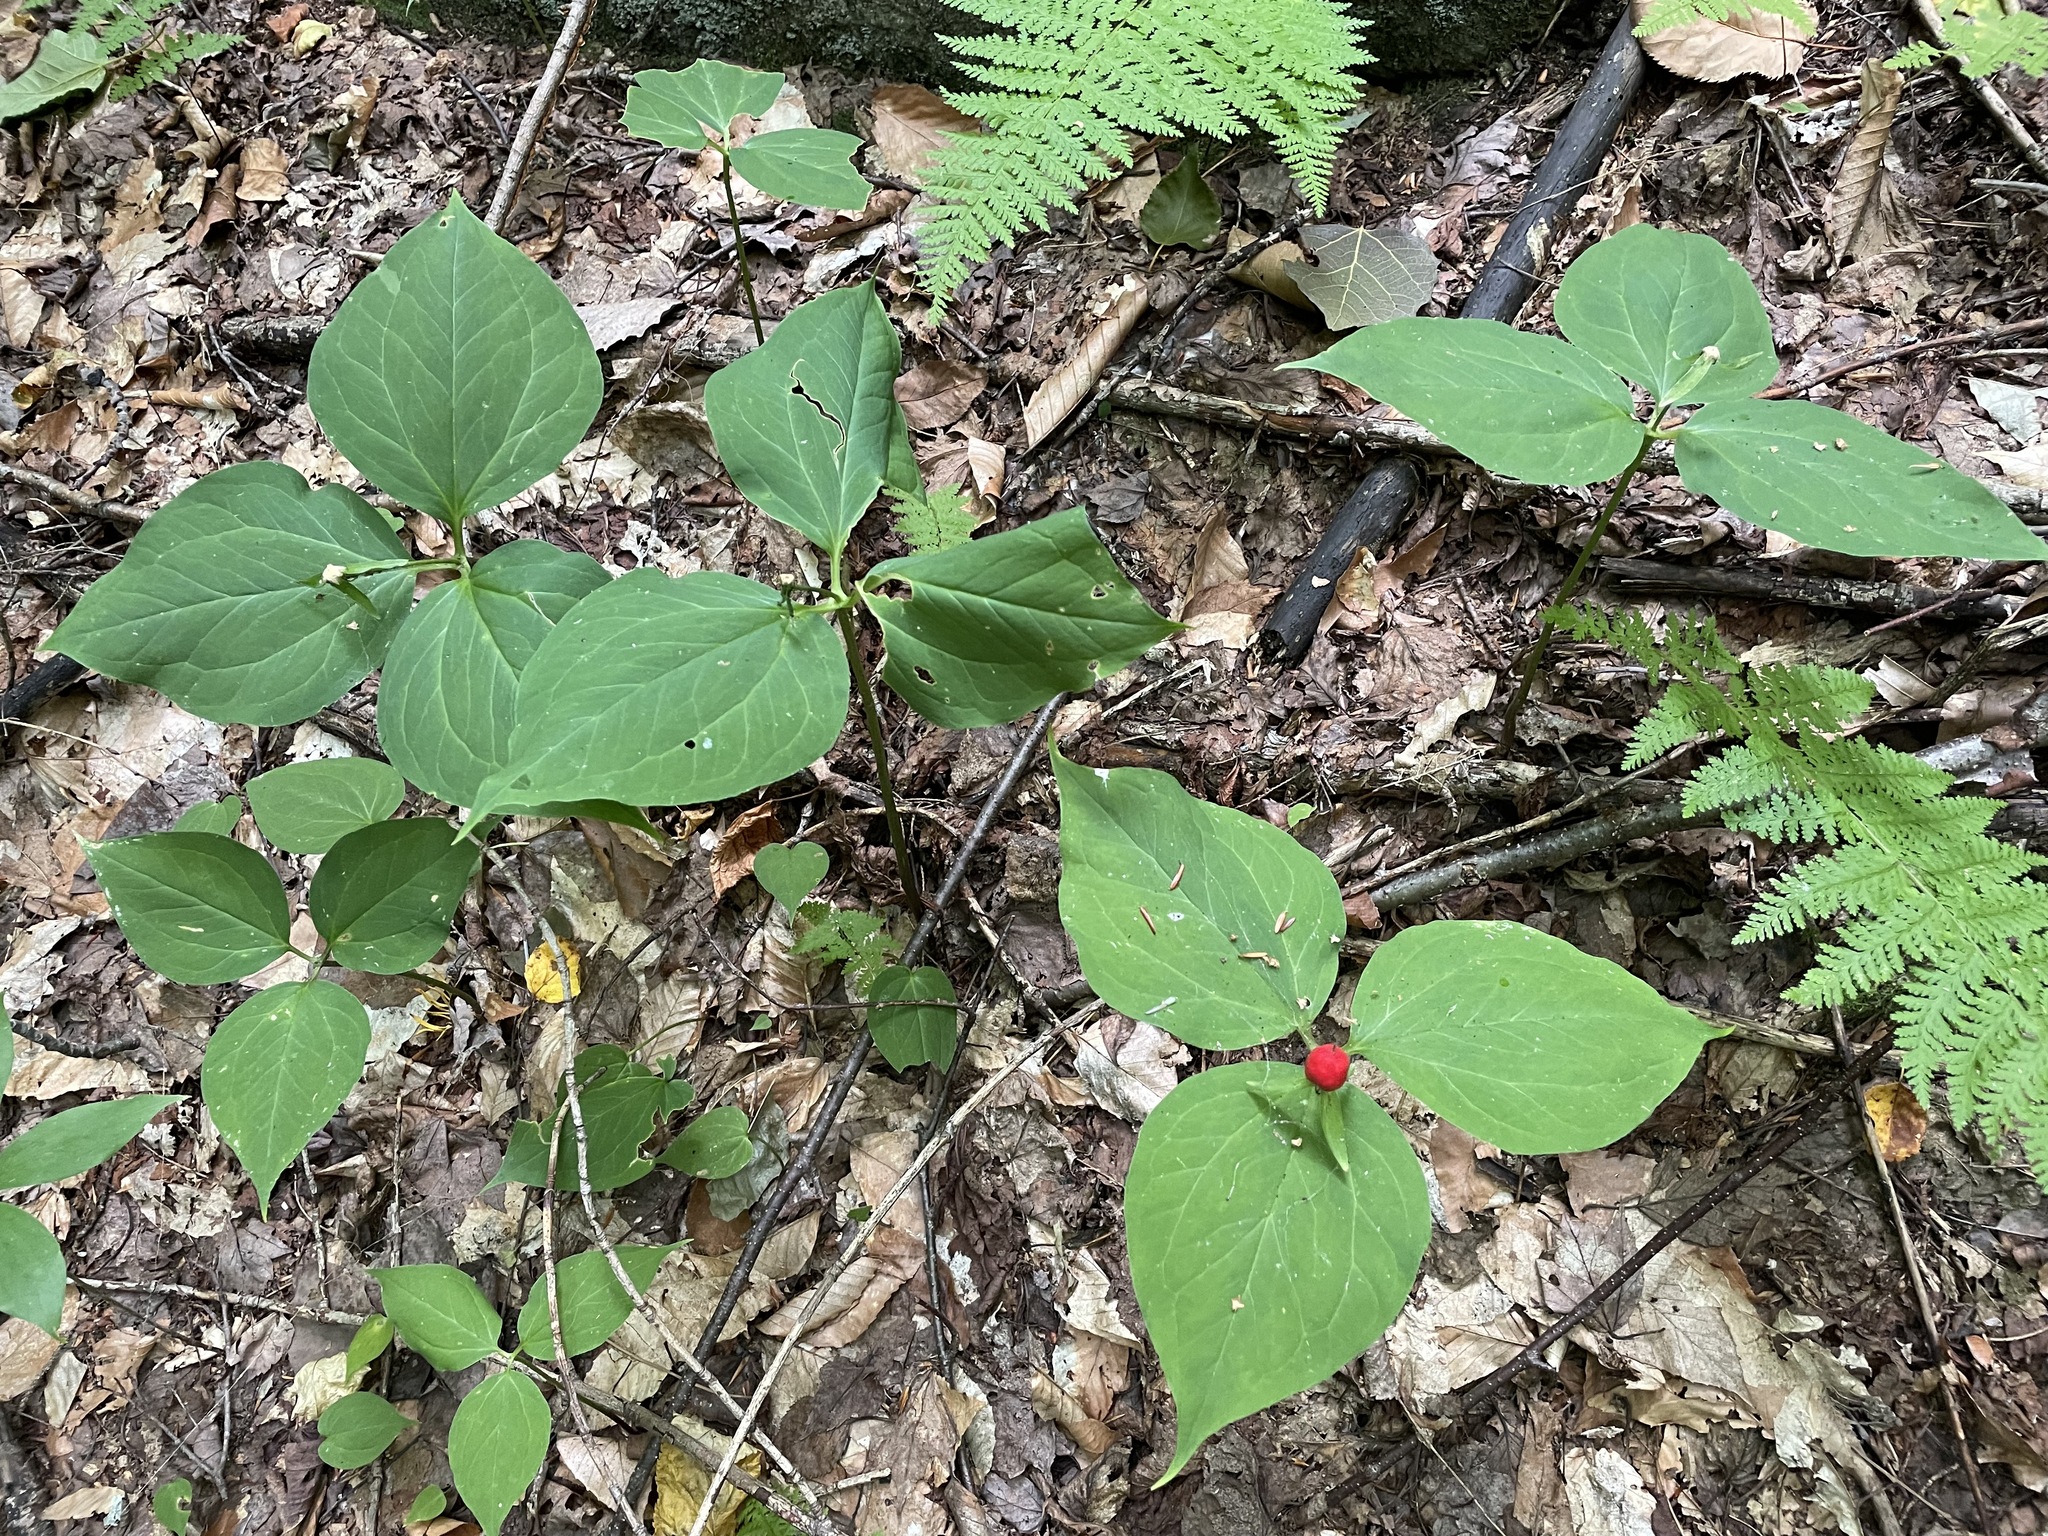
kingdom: Plantae
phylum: Tracheophyta
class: Liliopsida
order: Liliales
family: Melanthiaceae
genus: Trillium
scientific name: Trillium undulatum
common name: Paint trillium
